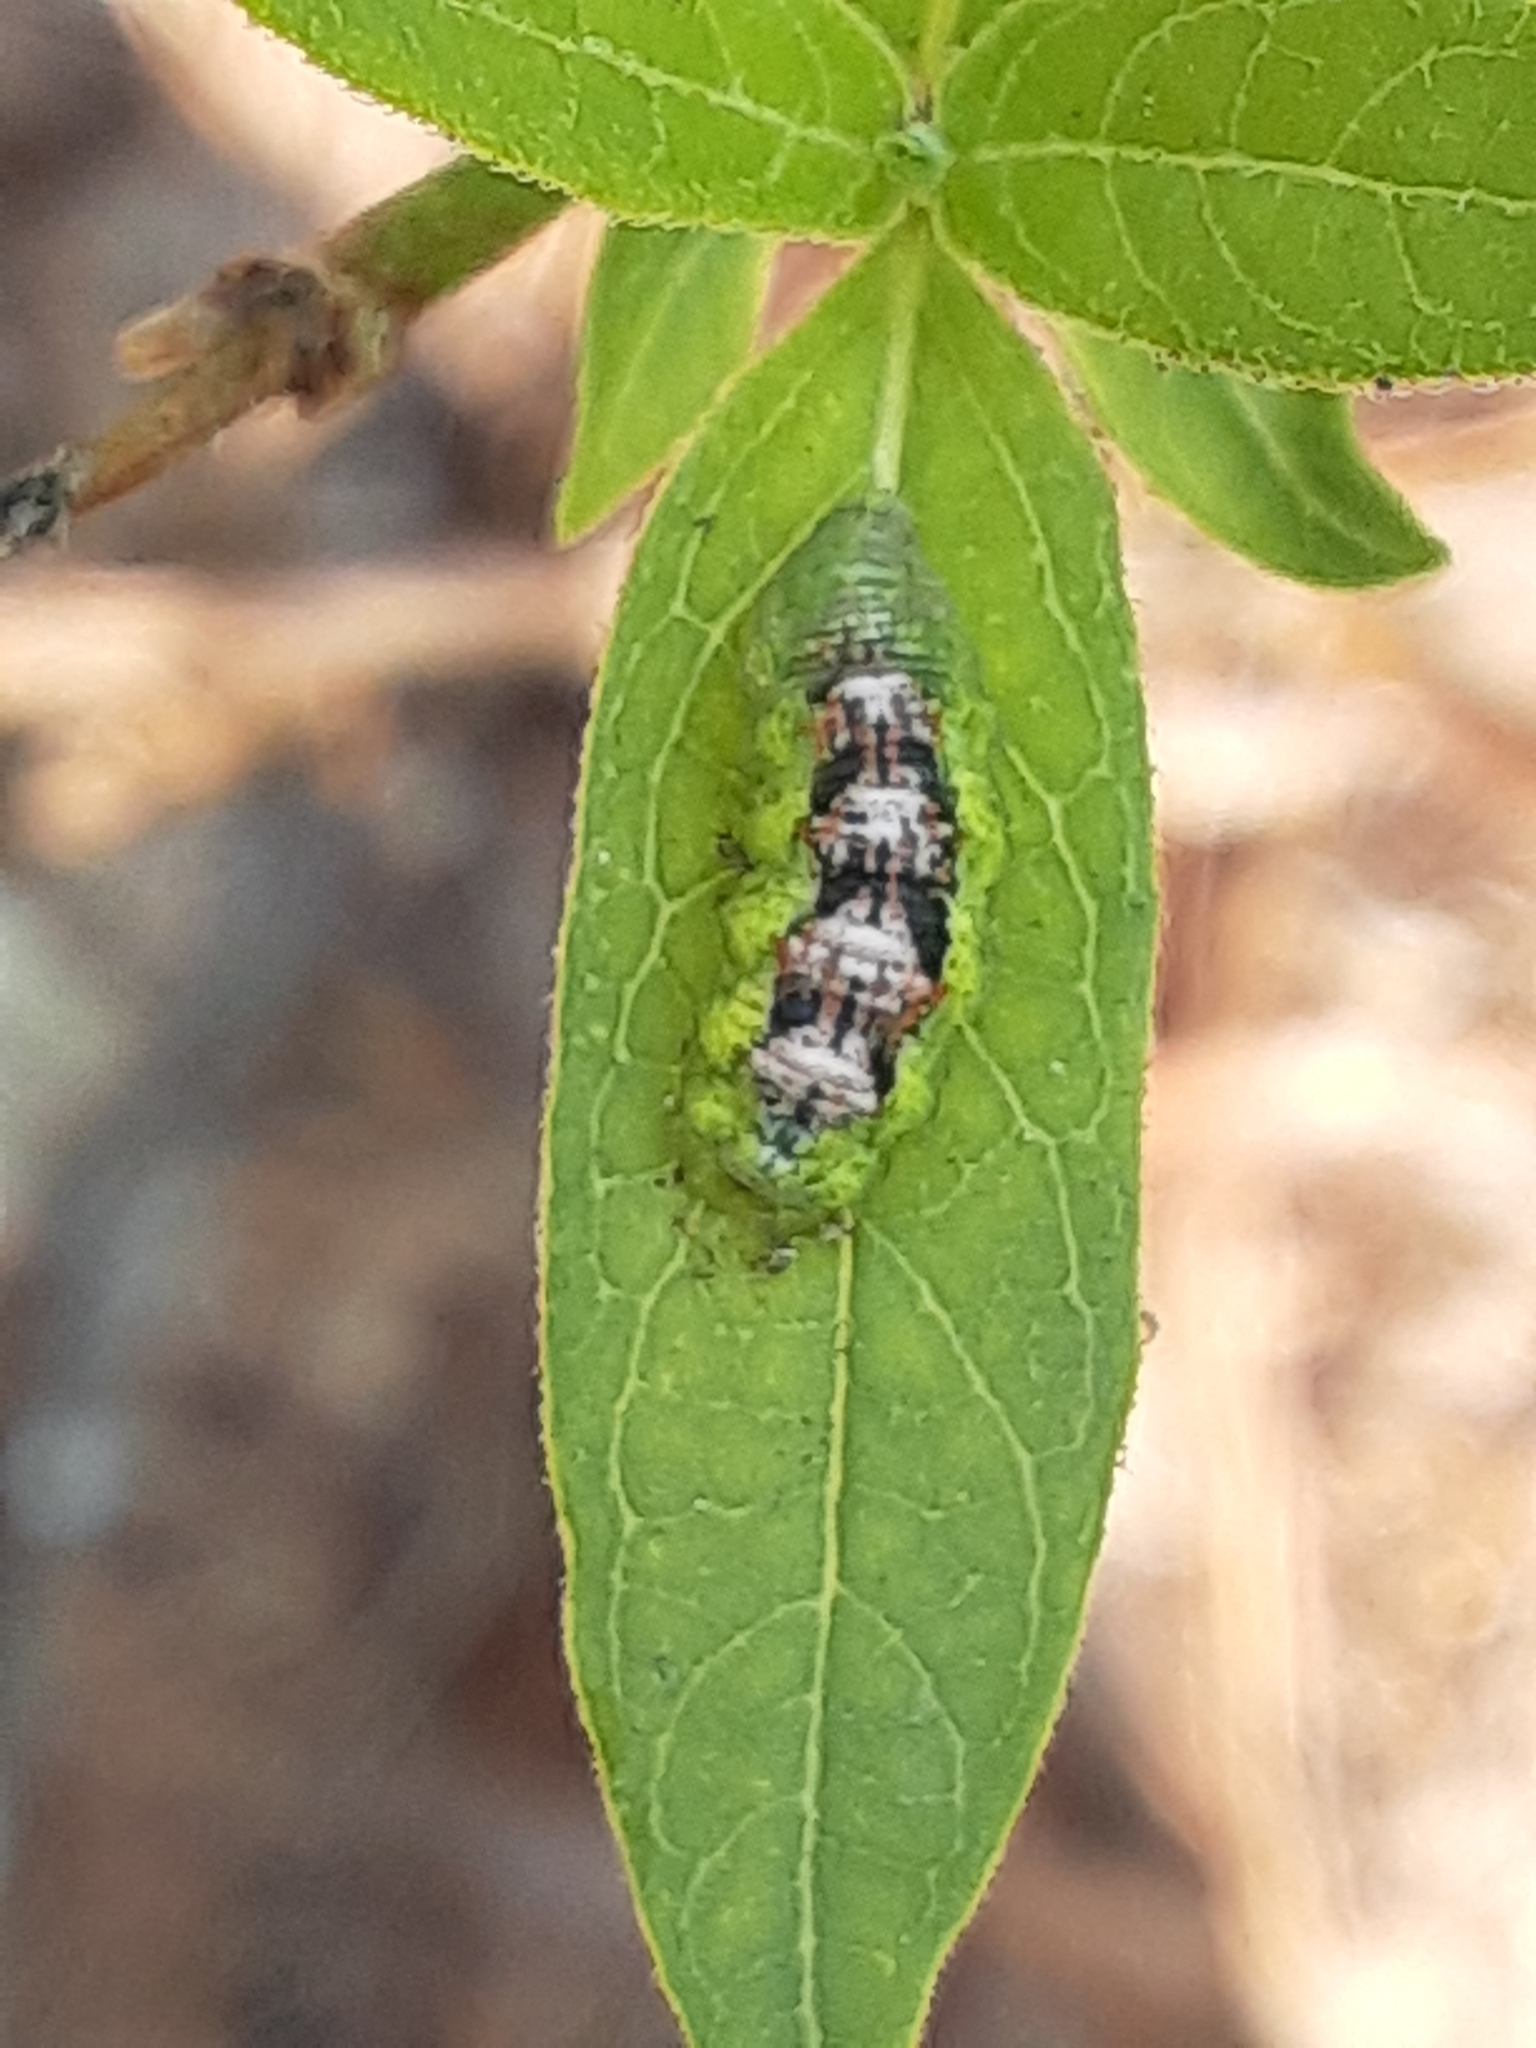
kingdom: Animalia
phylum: Arthropoda
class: Insecta
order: Diptera
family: Syrphidae
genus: Eupeodes
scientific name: Eupeodes pomus
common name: Short-tailed aphideater
